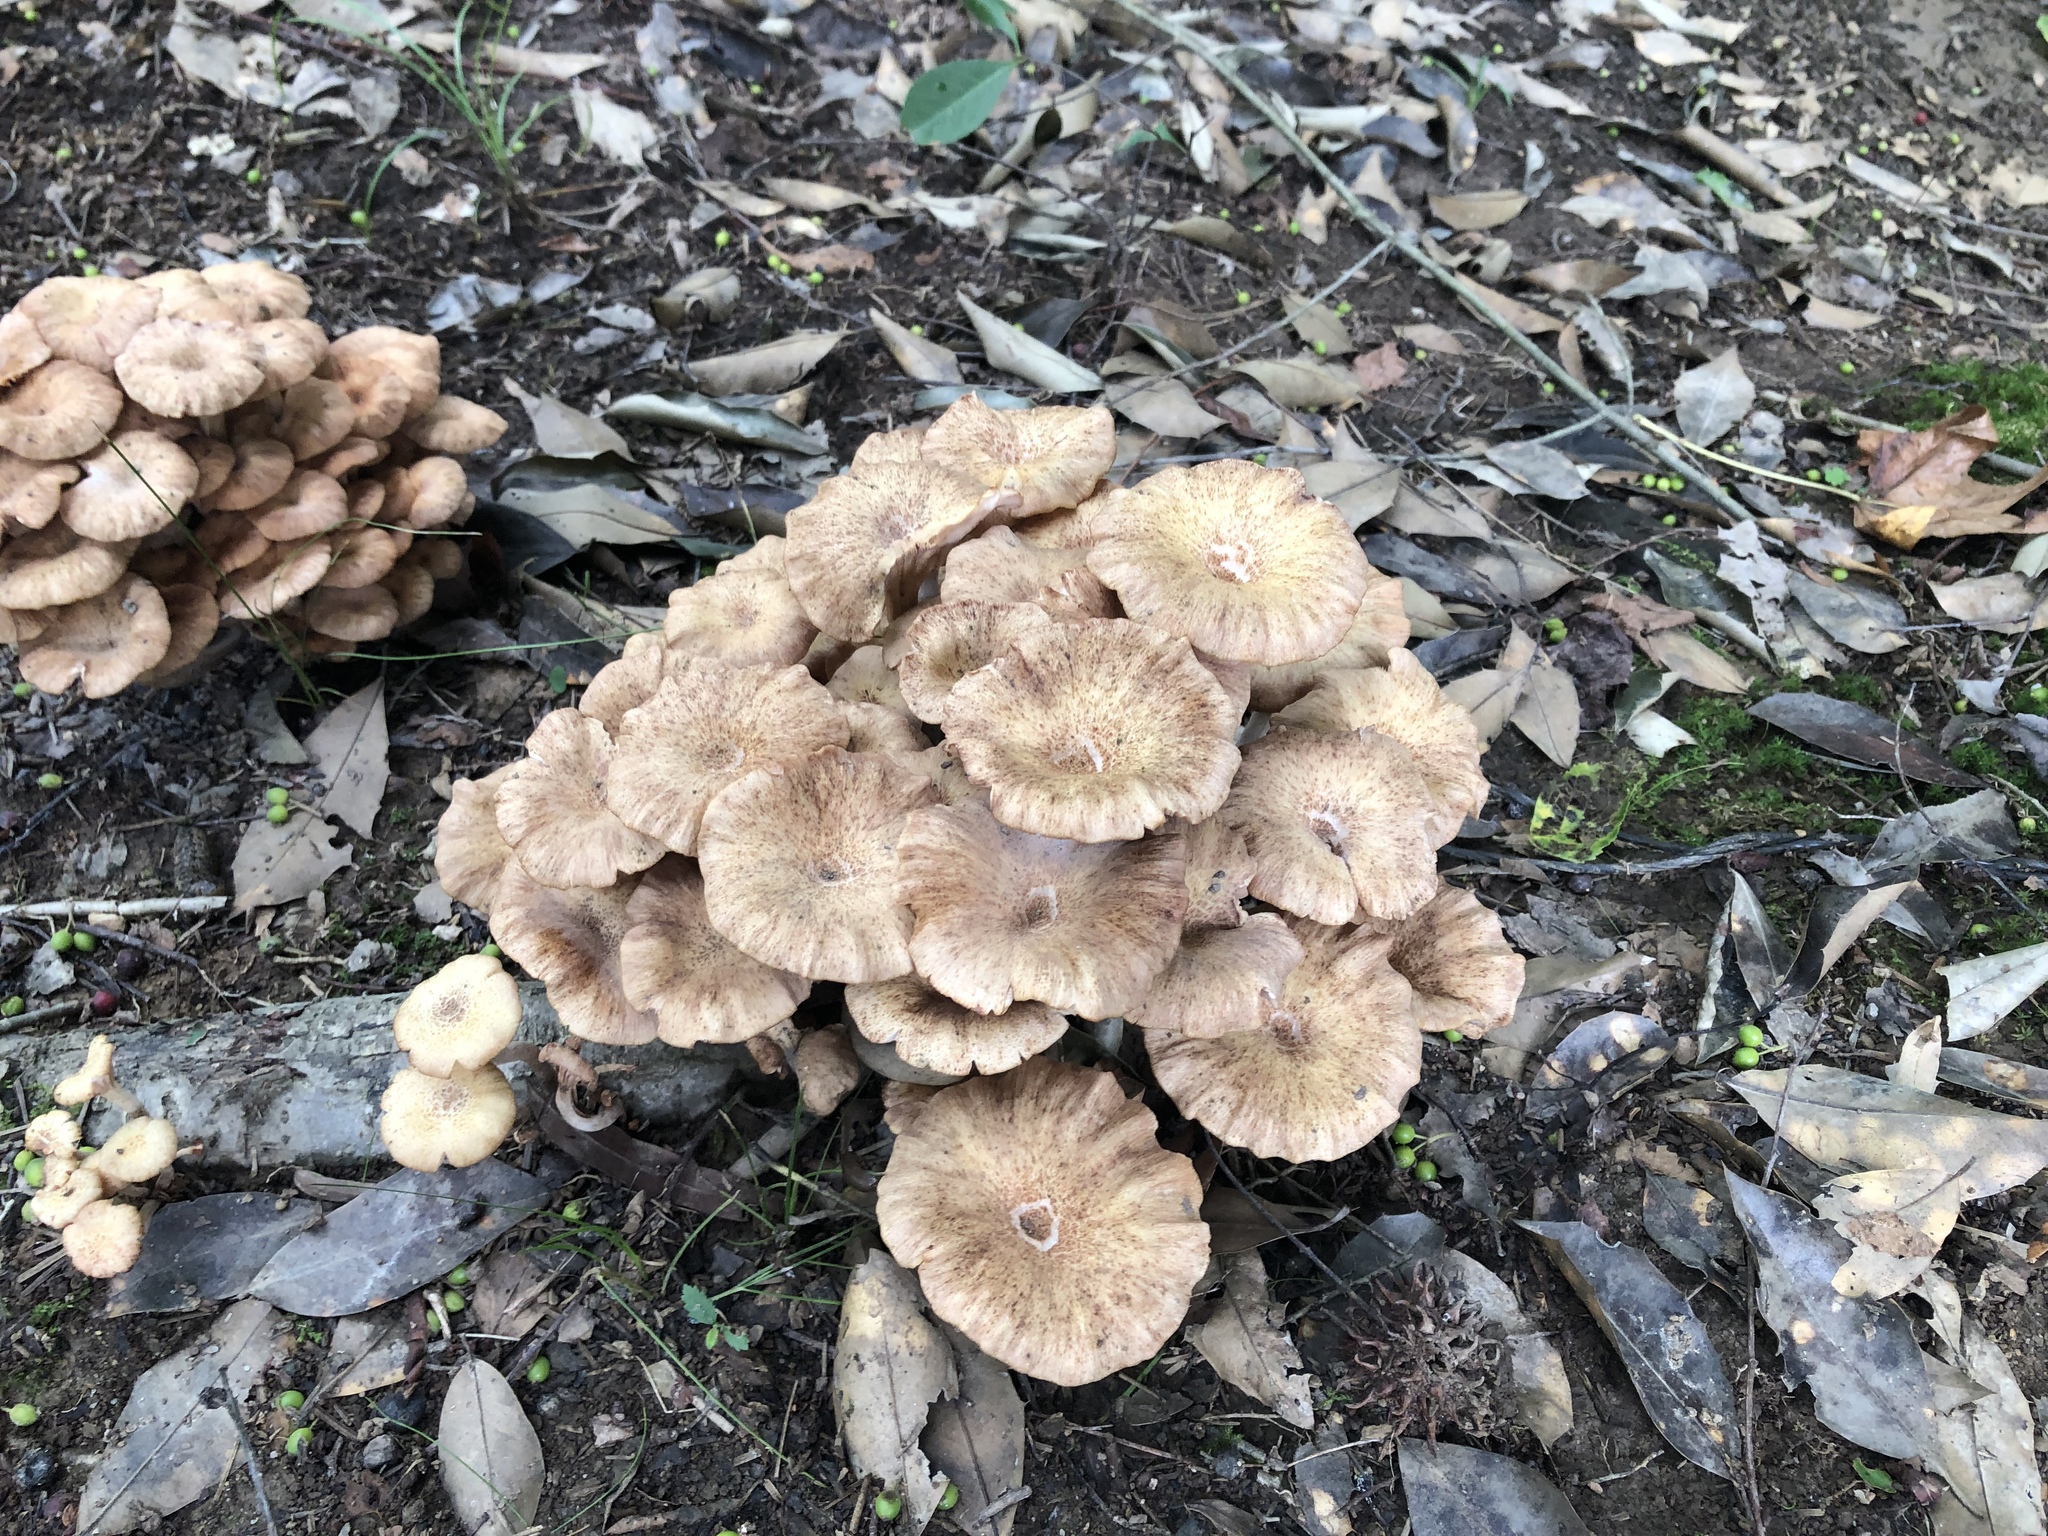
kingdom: Fungi
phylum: Basidiomycota
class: Agaricomycetes
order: Agaricales
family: Physalacriaceae
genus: Desarmillaria
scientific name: Desarmillaria caespitosa
